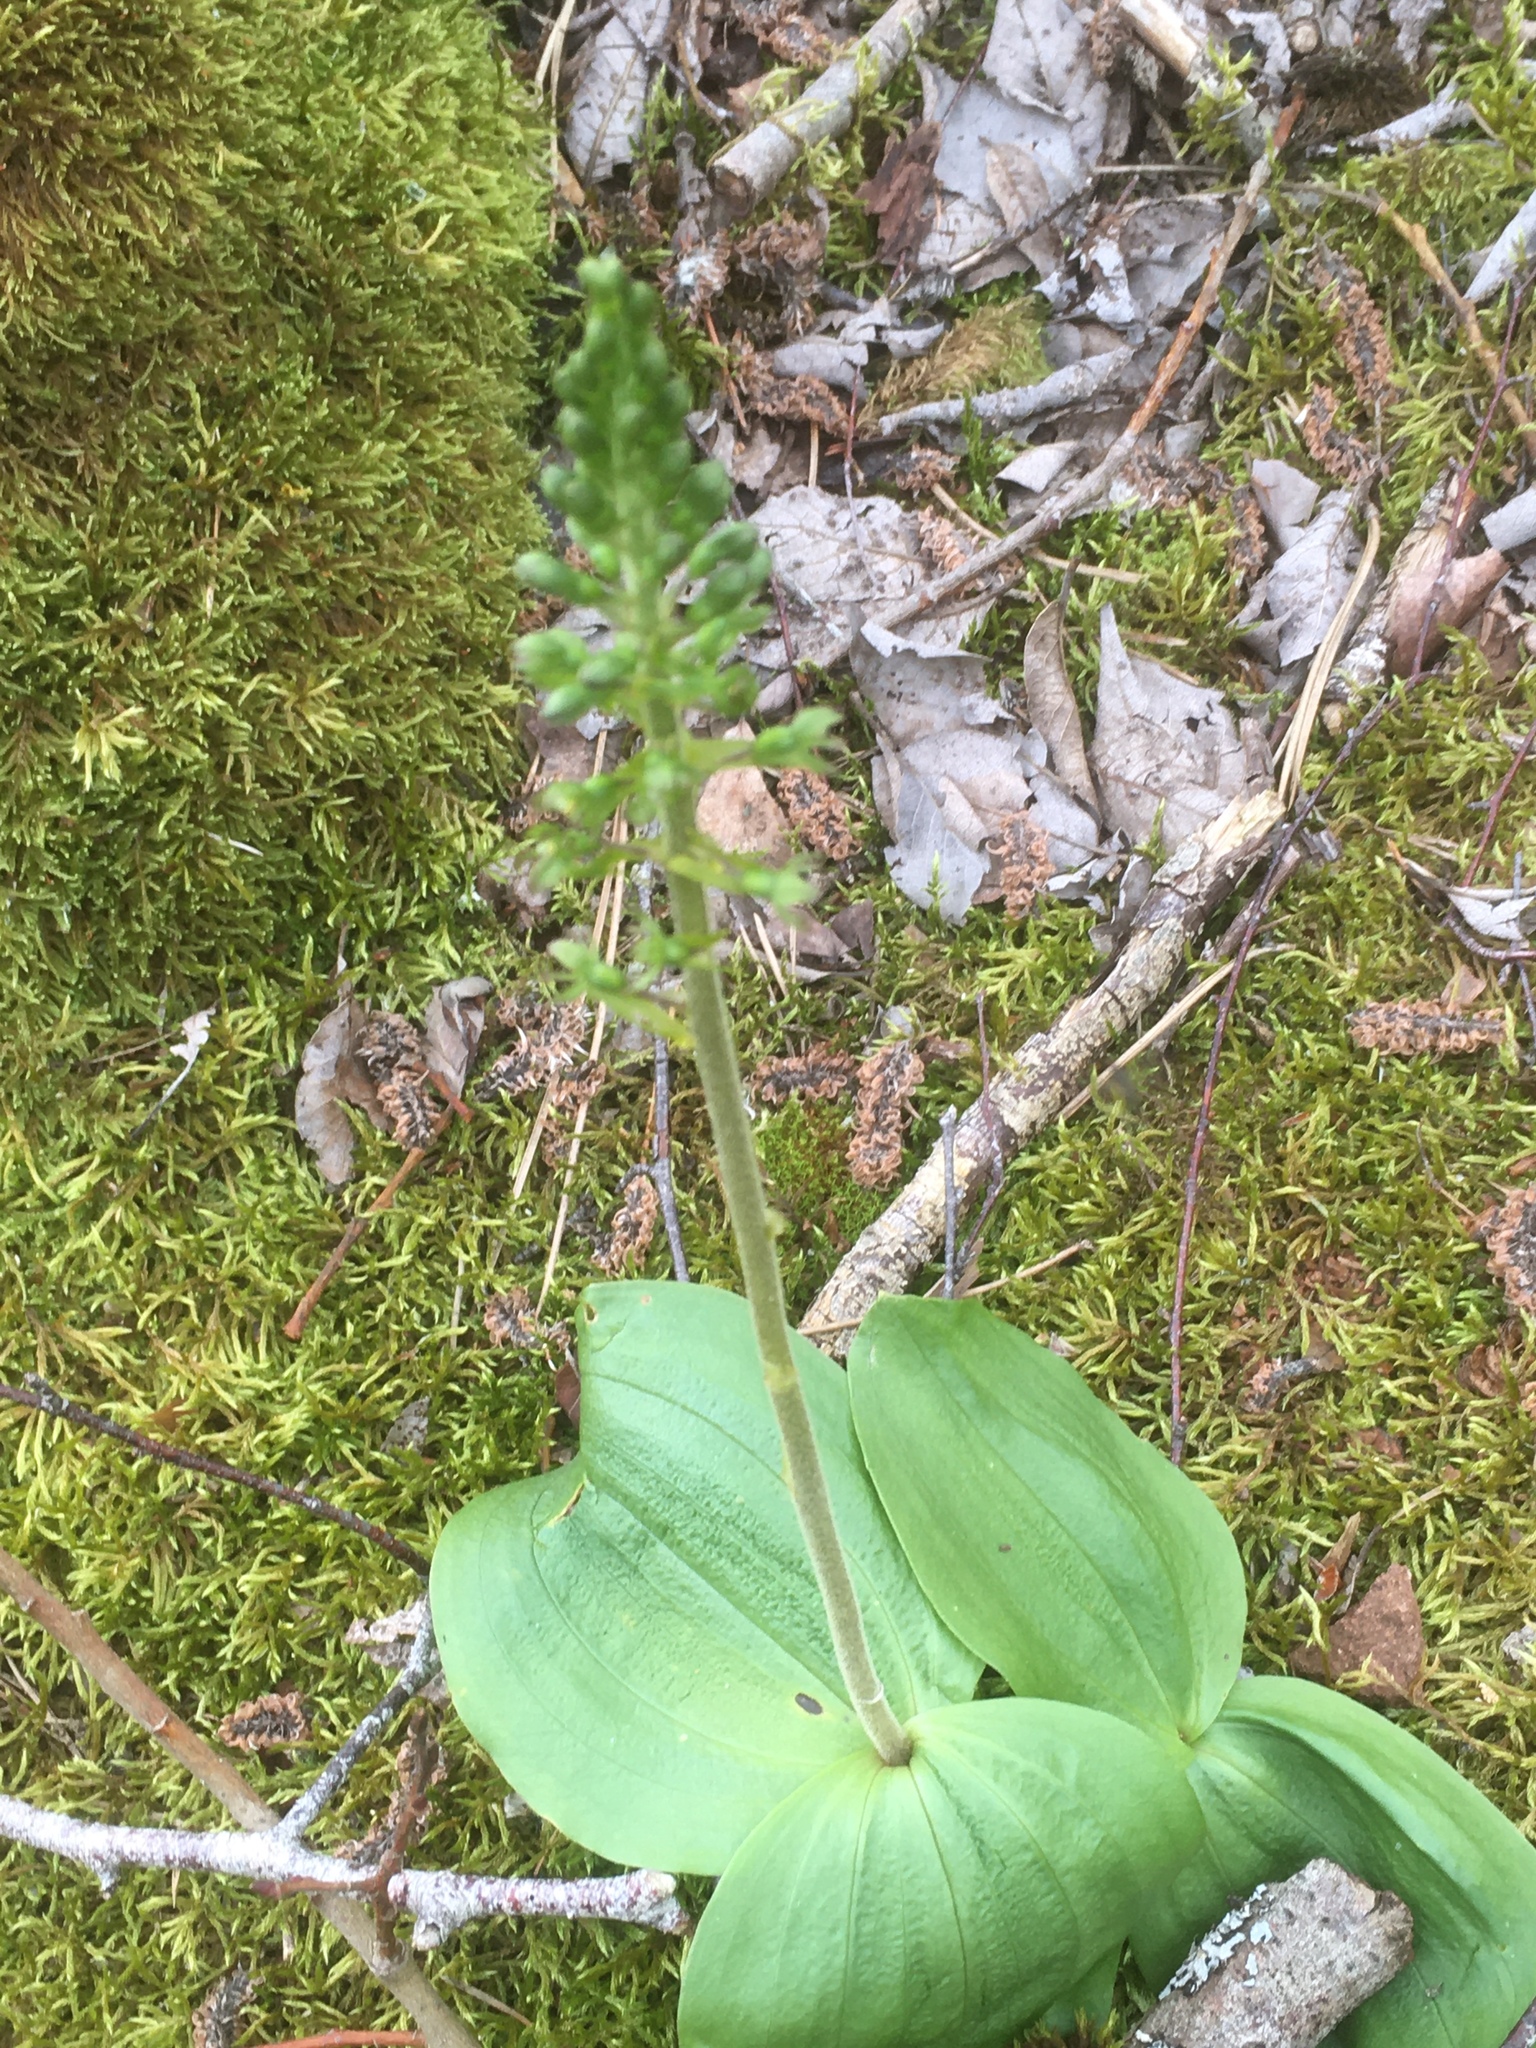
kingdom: Plantae
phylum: Tracheophyta
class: Liliopsida
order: Asparagales
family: Orchidaceae
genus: Neottia
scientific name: Neottia ovata
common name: Common twayblade
